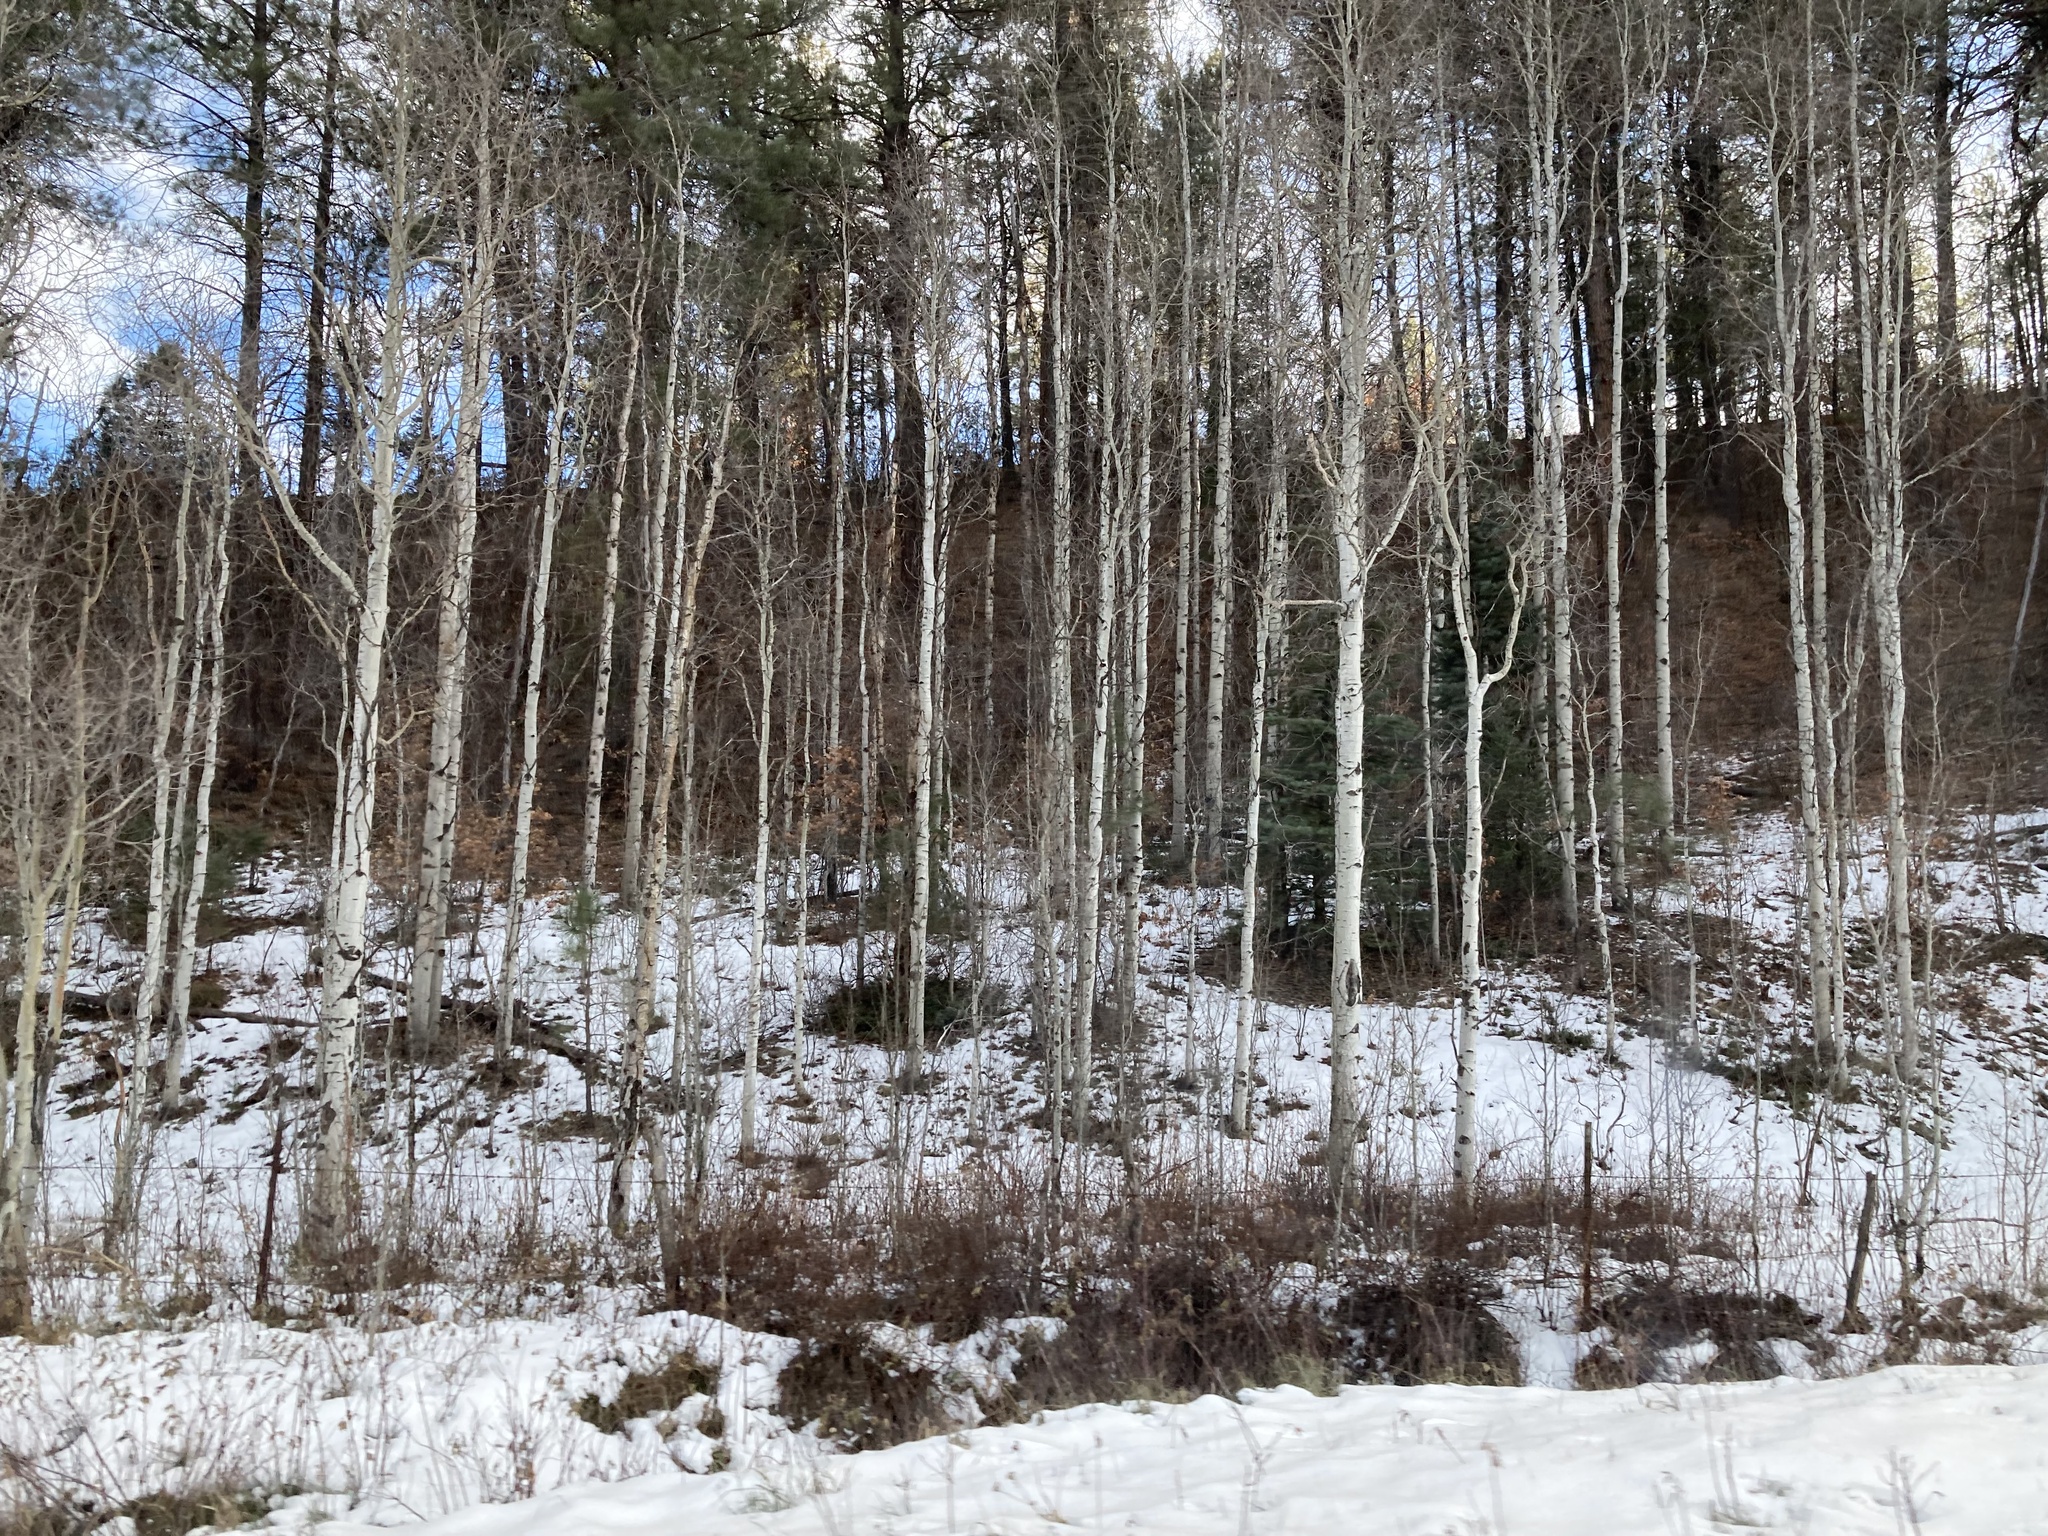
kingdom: Plantae
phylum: Tracheophyta
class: Magnoliopsida
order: Malpighiales
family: Salicaceae
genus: Populus
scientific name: Populus tremuloides
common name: Quaking aspen
